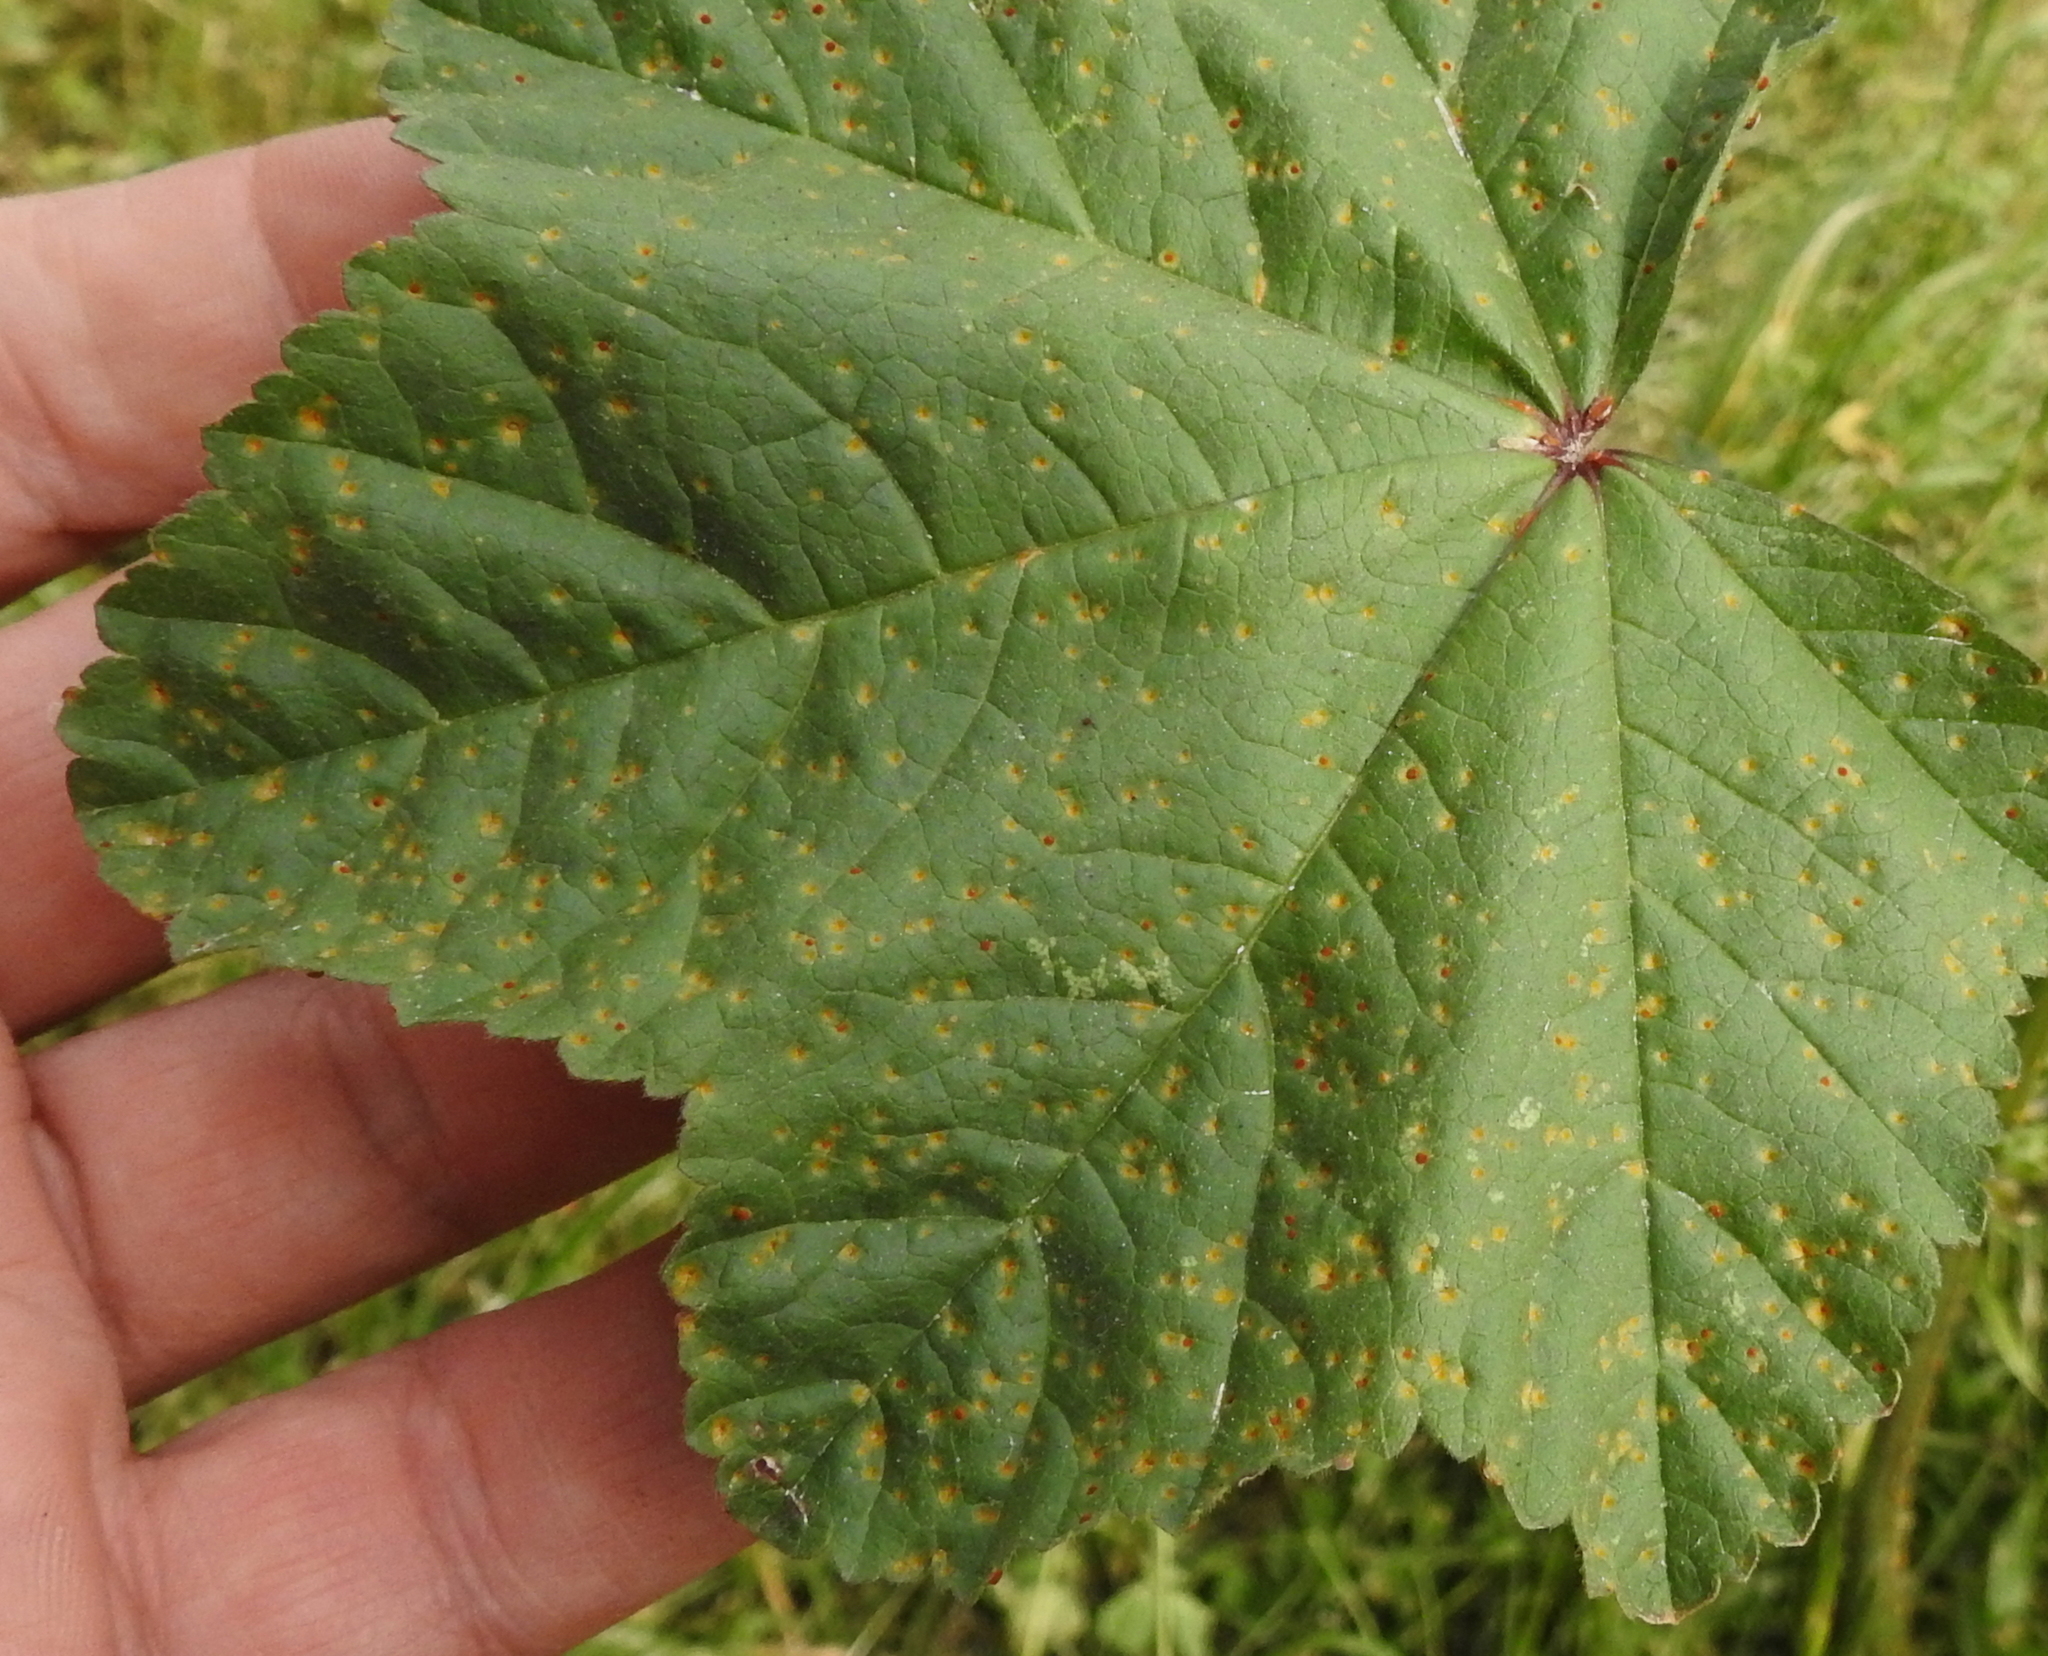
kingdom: Fungi
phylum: Basidiomycota
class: Pucciniomycetes
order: Pucciniales
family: Pucciniaceae
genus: Puccinia
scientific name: Puccinia malvacearum
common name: Hollyhock rust
